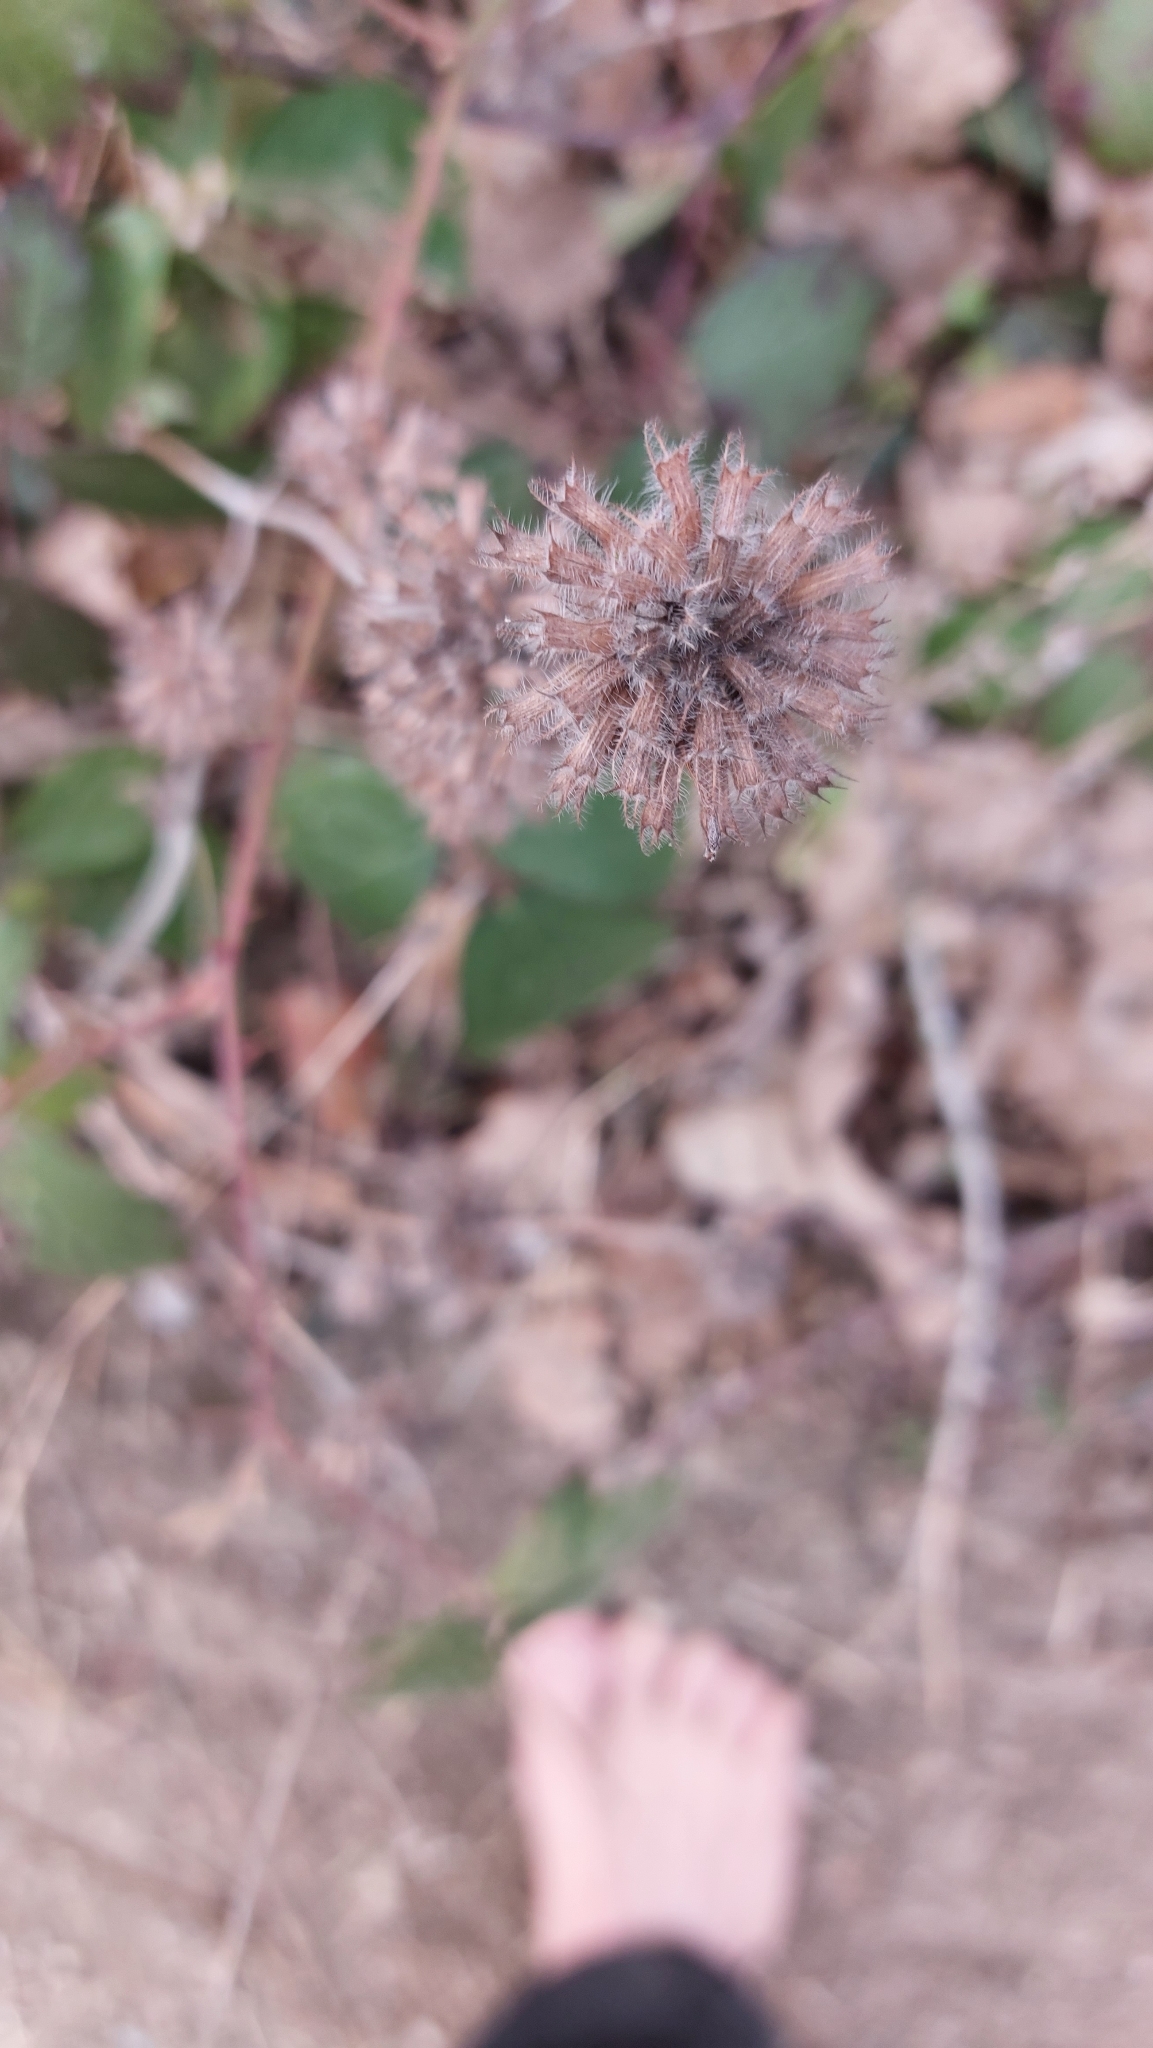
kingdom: Plantae
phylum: Tracheophyta
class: Magnoliopsida
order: Lamiales
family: Lamiaceae
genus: Clinopodium
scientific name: Clinopodium vulgare
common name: Wild basil
